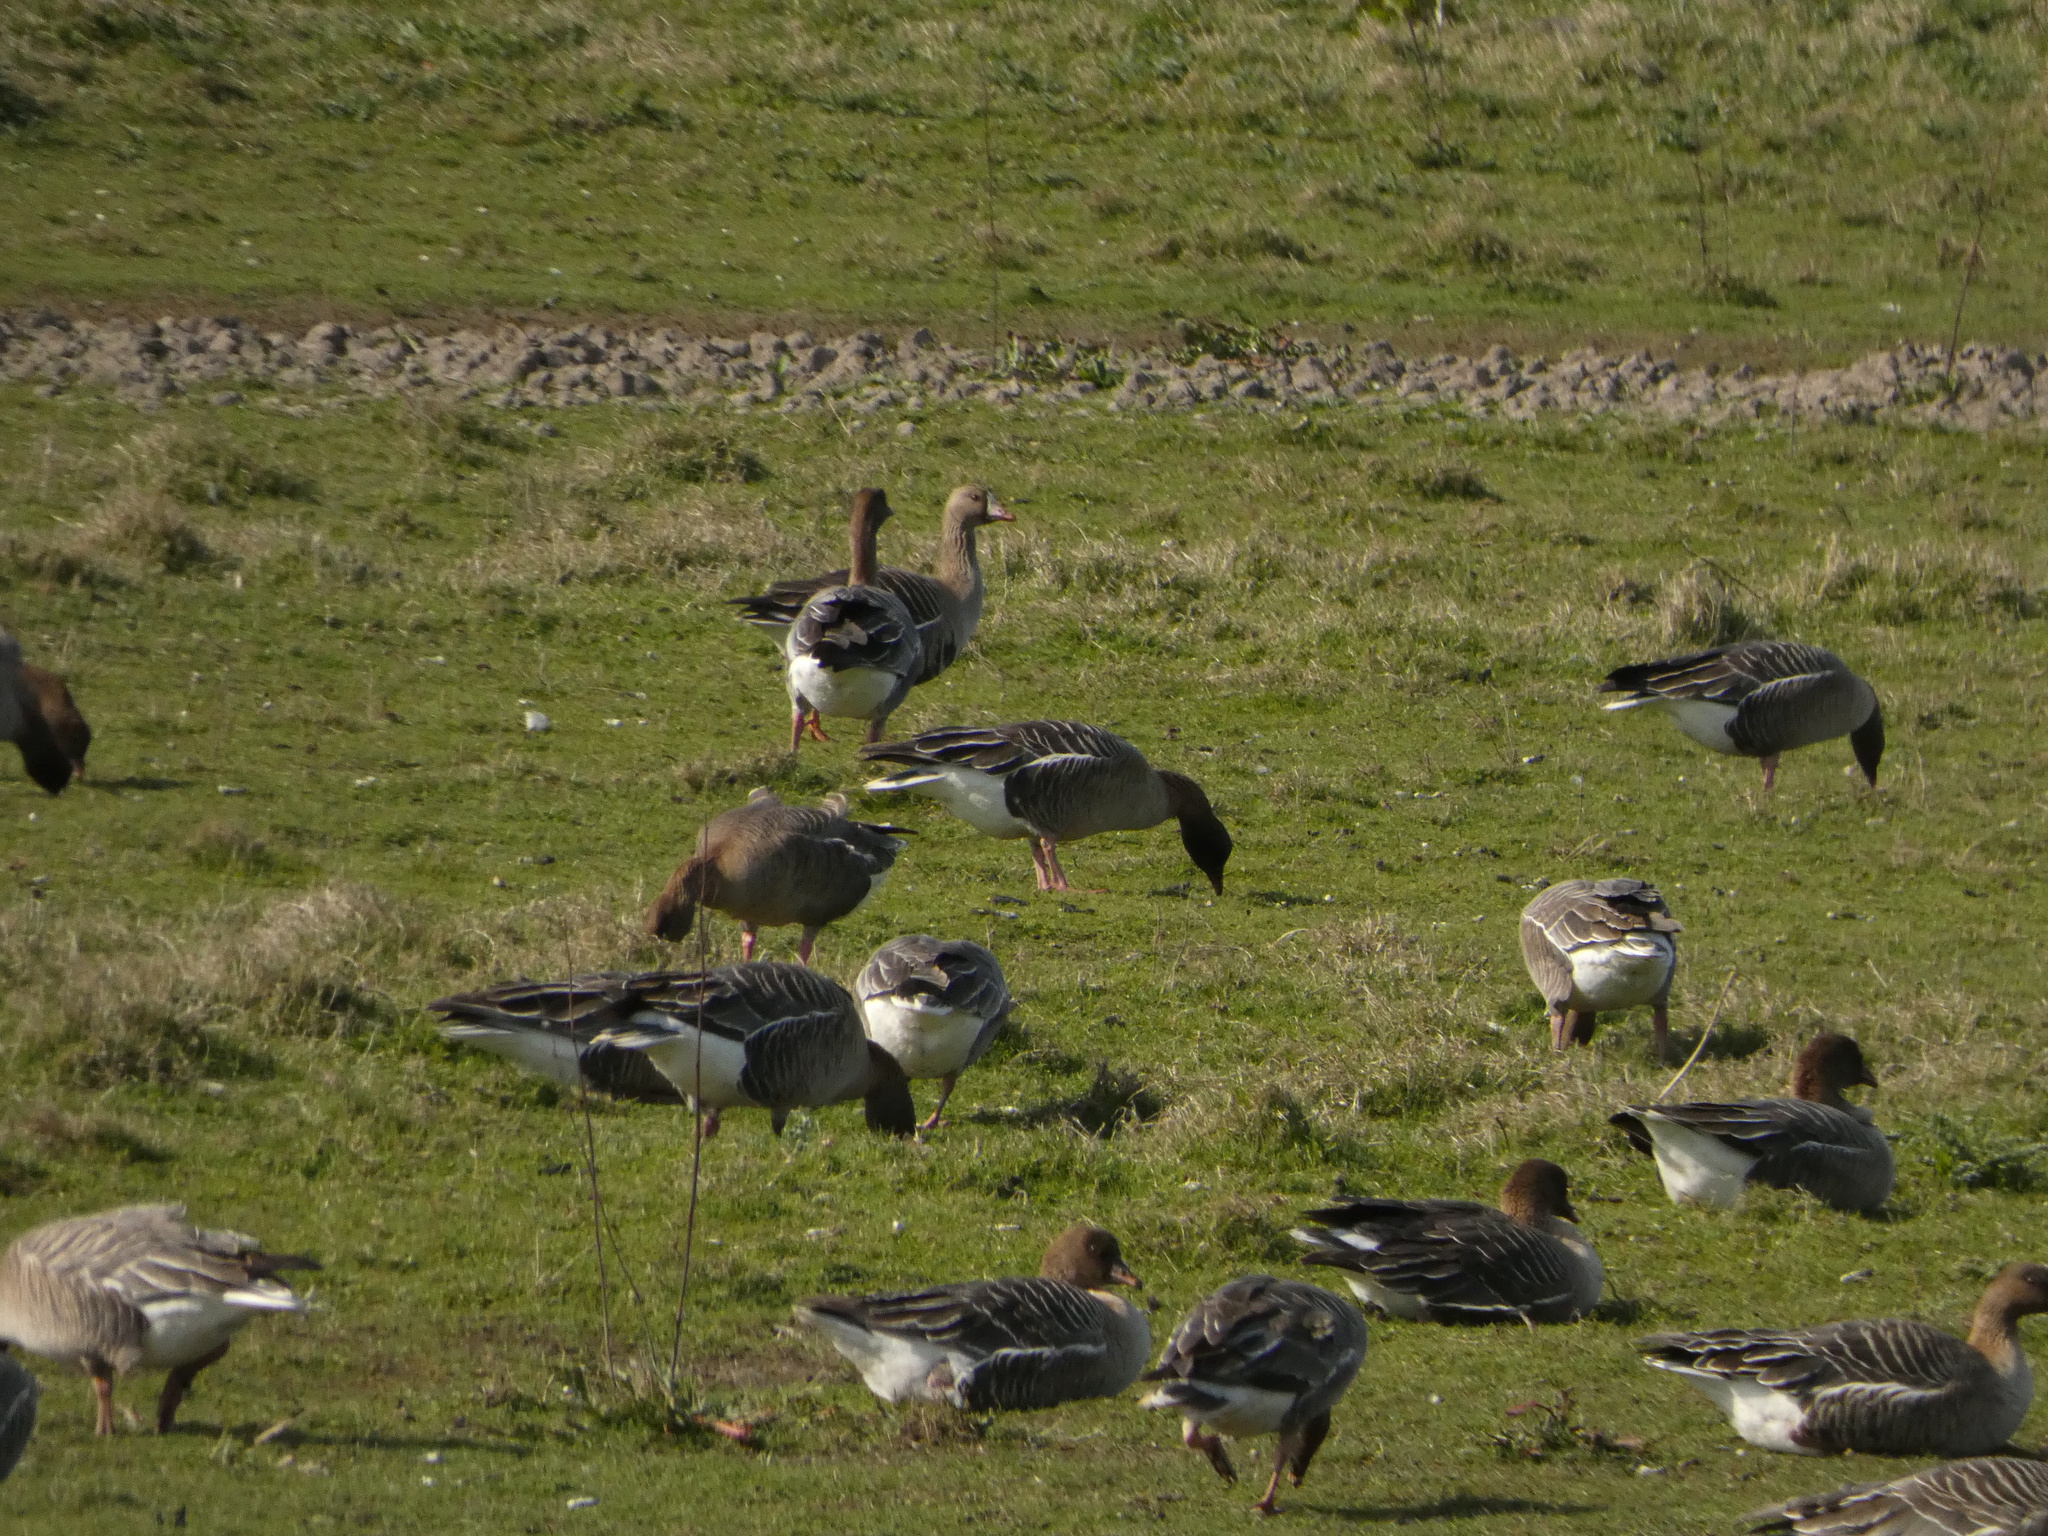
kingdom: Animalia
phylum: Chordata
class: Aves
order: Anseriformes
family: Anatidae
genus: Anser
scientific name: Anser albifrons
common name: Greater white-fronted goose
